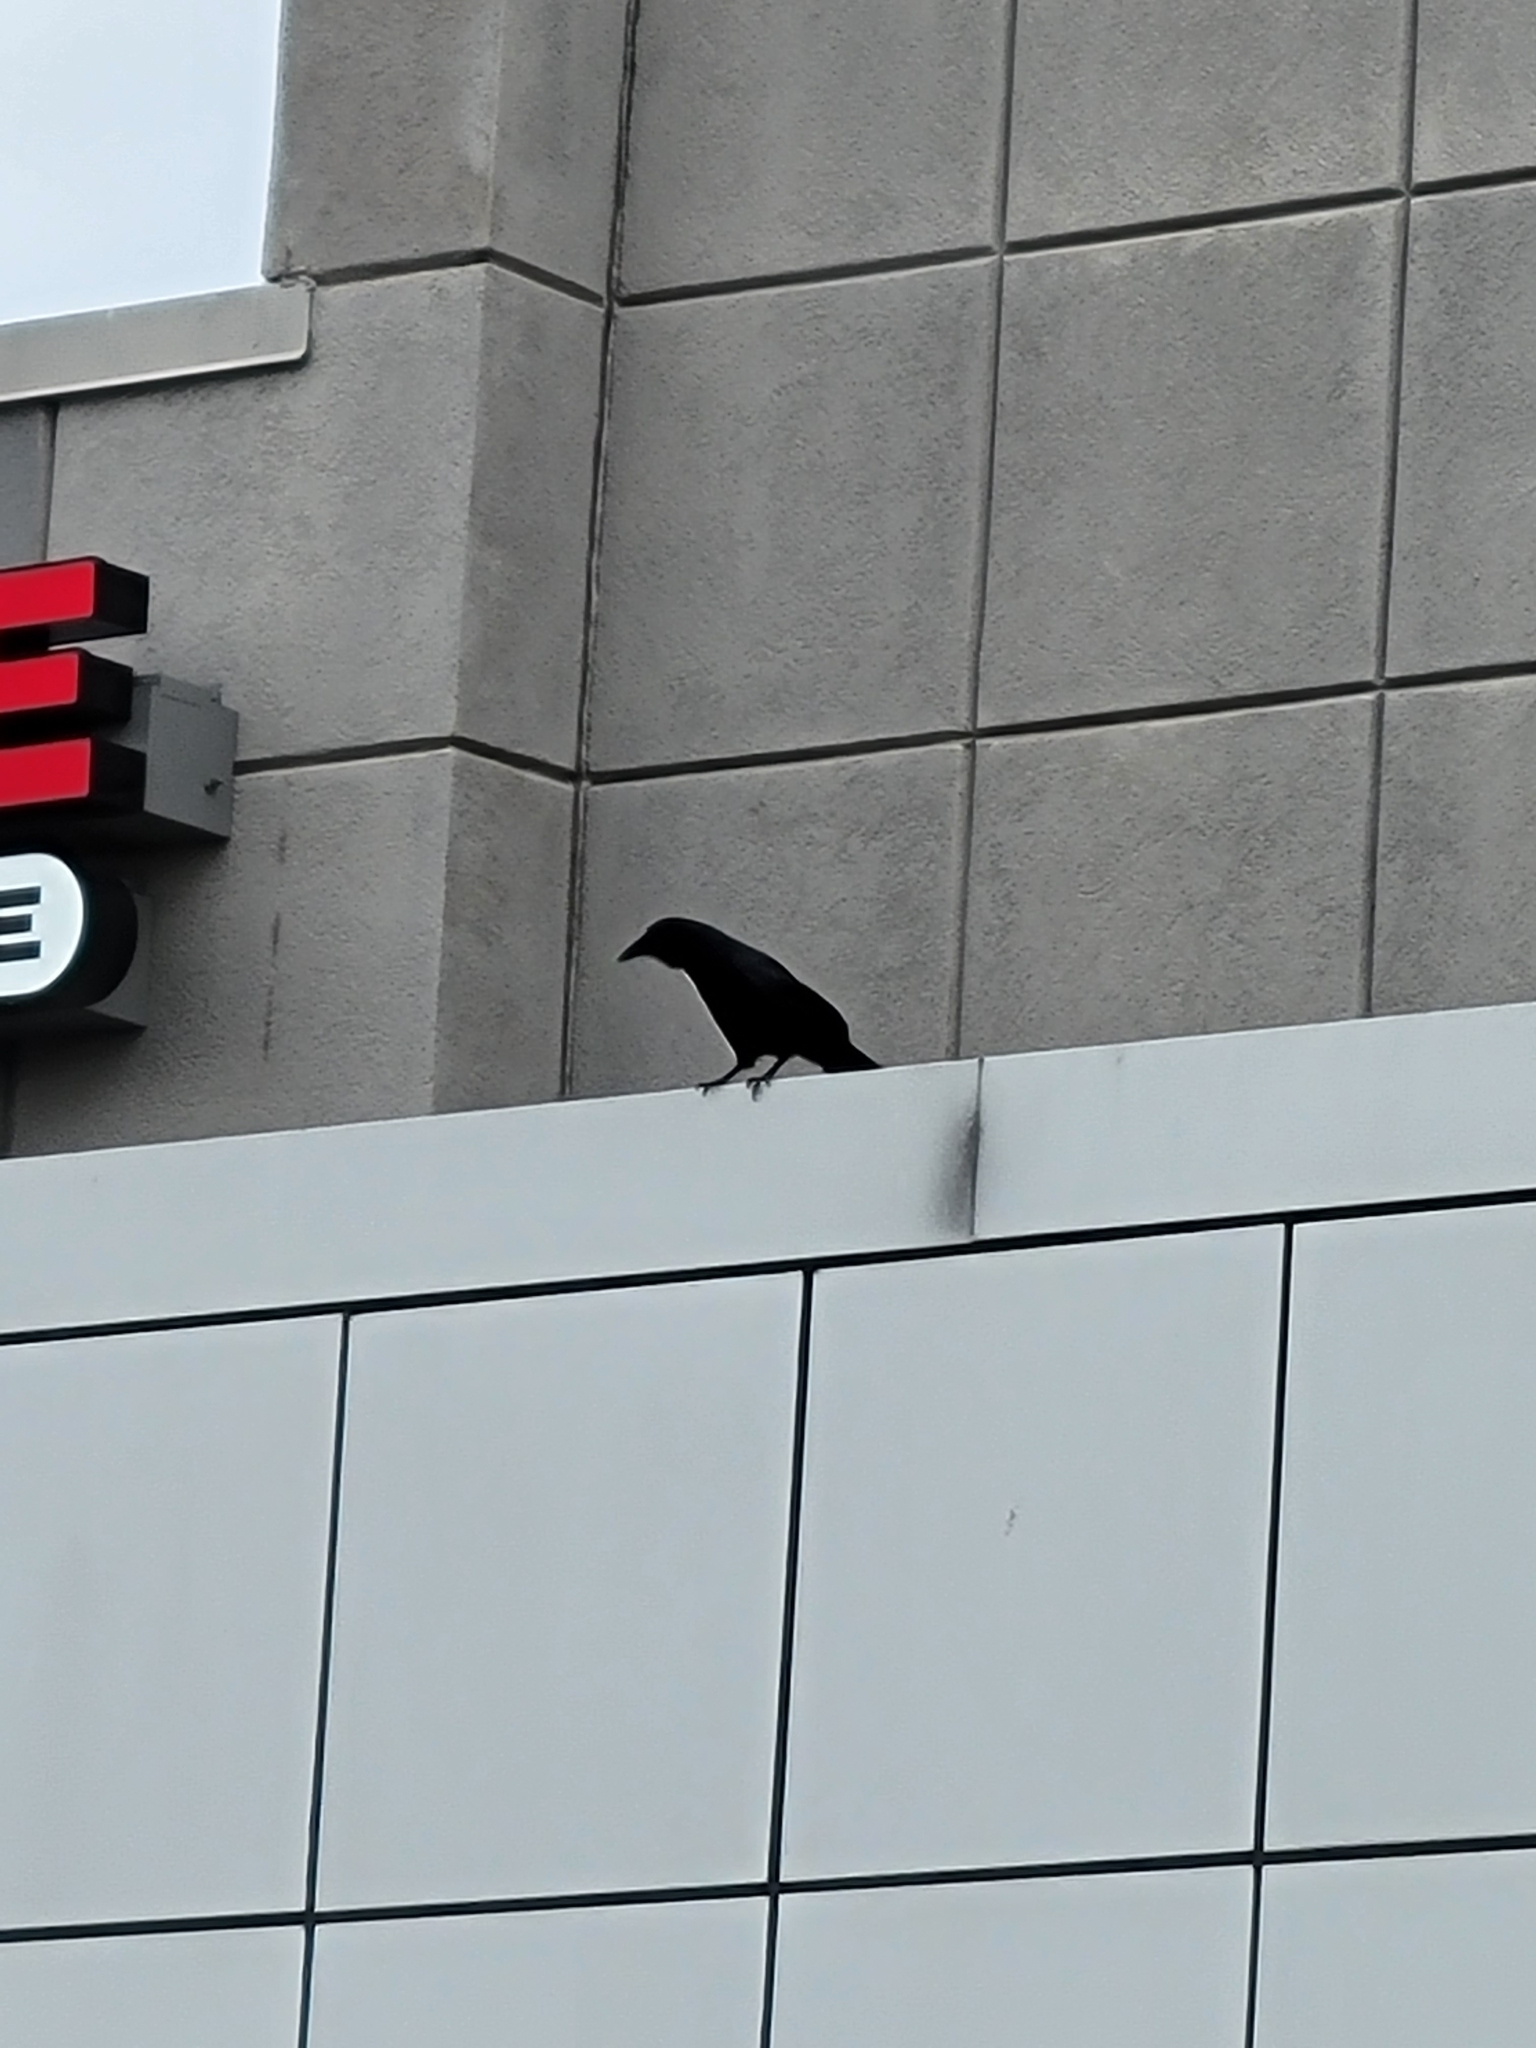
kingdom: Animalia
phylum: Chordata
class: Aves
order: Passeriformes
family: Corvidae
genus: Corvus
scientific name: Corvus brachyrhynchos
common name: American crow
